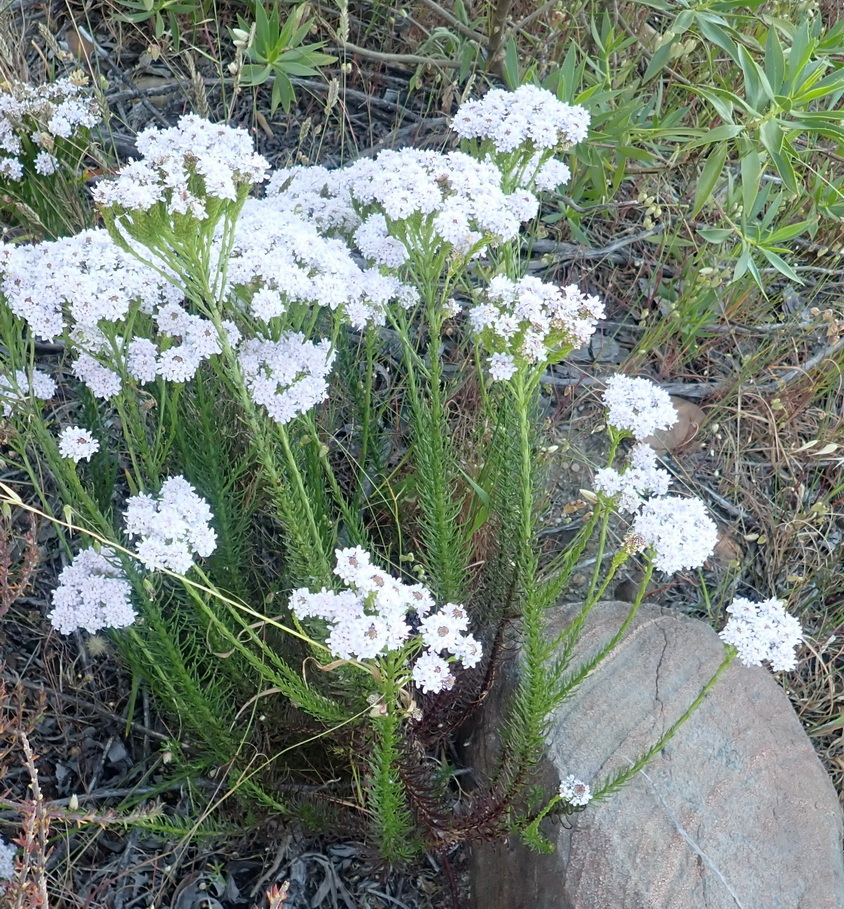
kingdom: Plantae
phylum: Tracheophyta
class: Magnoliopsida
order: Lamiales
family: Scrophulariaceae
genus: Pseudoselago
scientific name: Pseudoselago spuria
